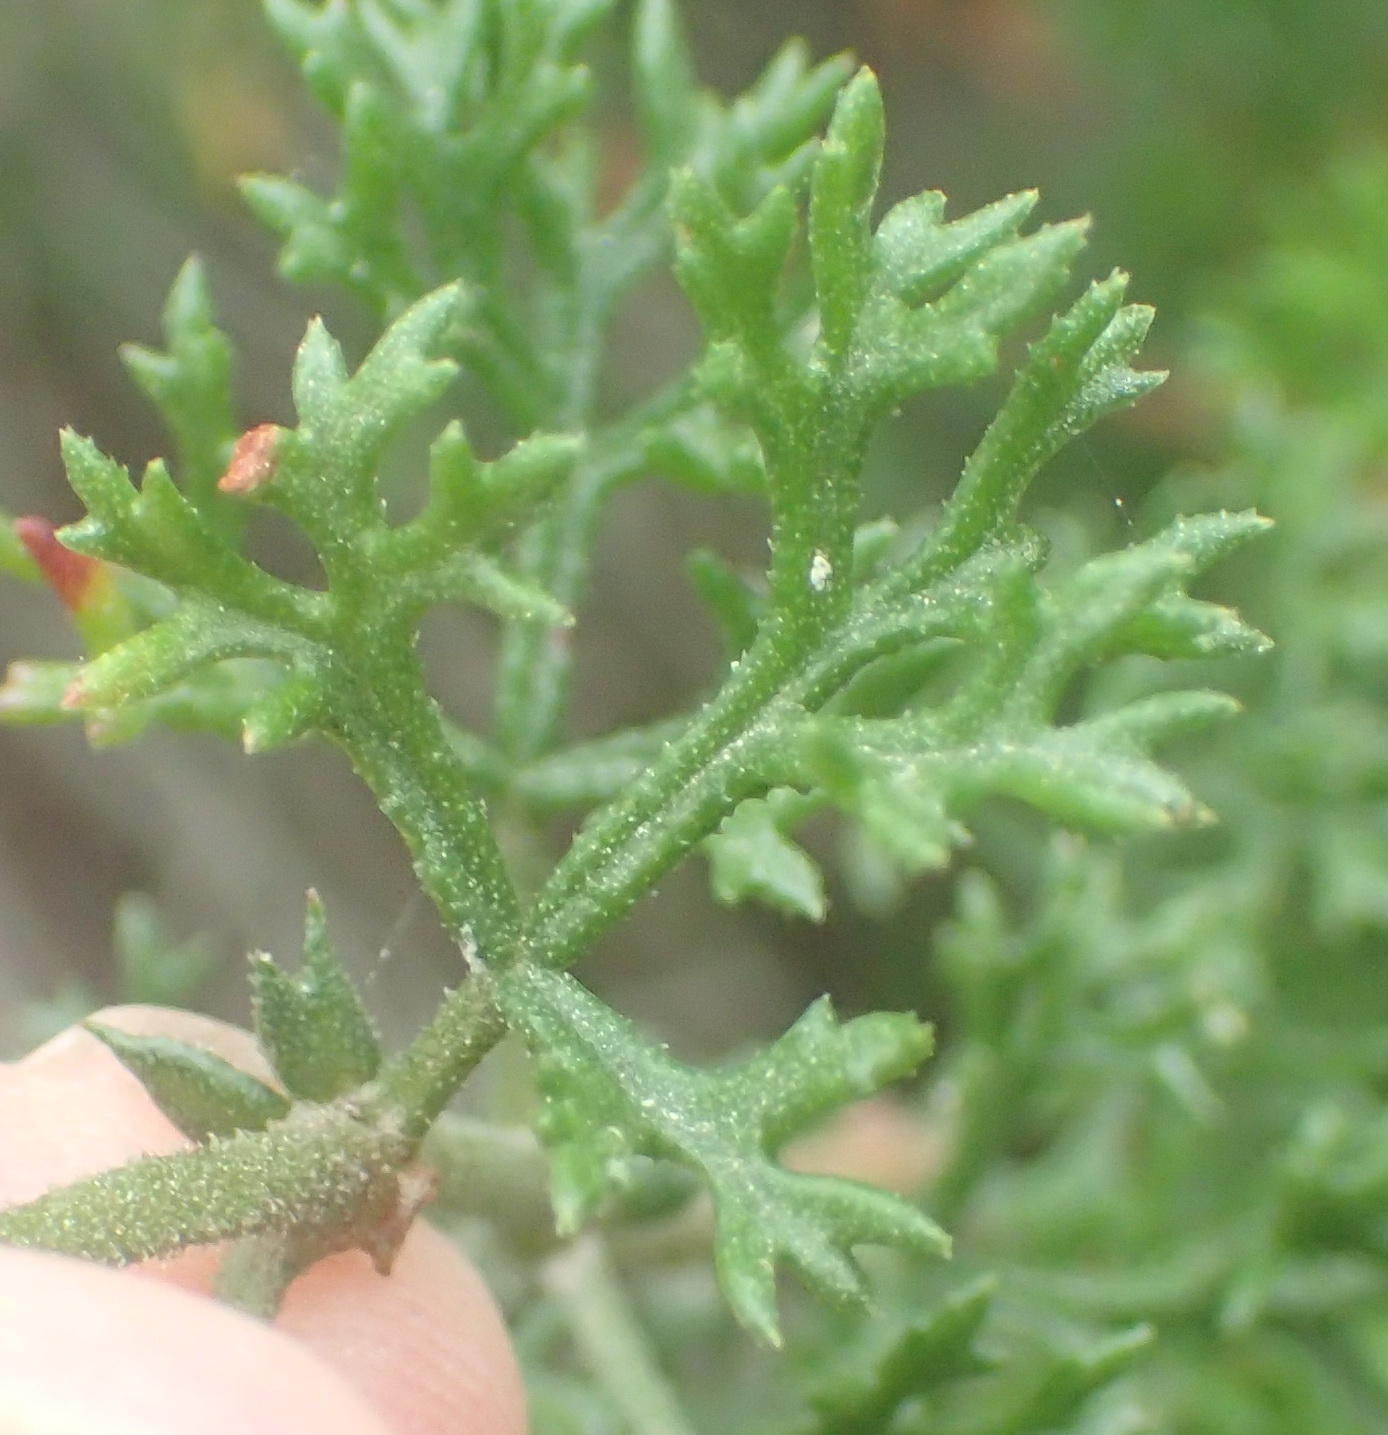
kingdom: Plantae
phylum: Tracheophyta
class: Magnoliopsida
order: Geraniales
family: Geraniaceae
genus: Pelargonium
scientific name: Pelargonium fruticosum
